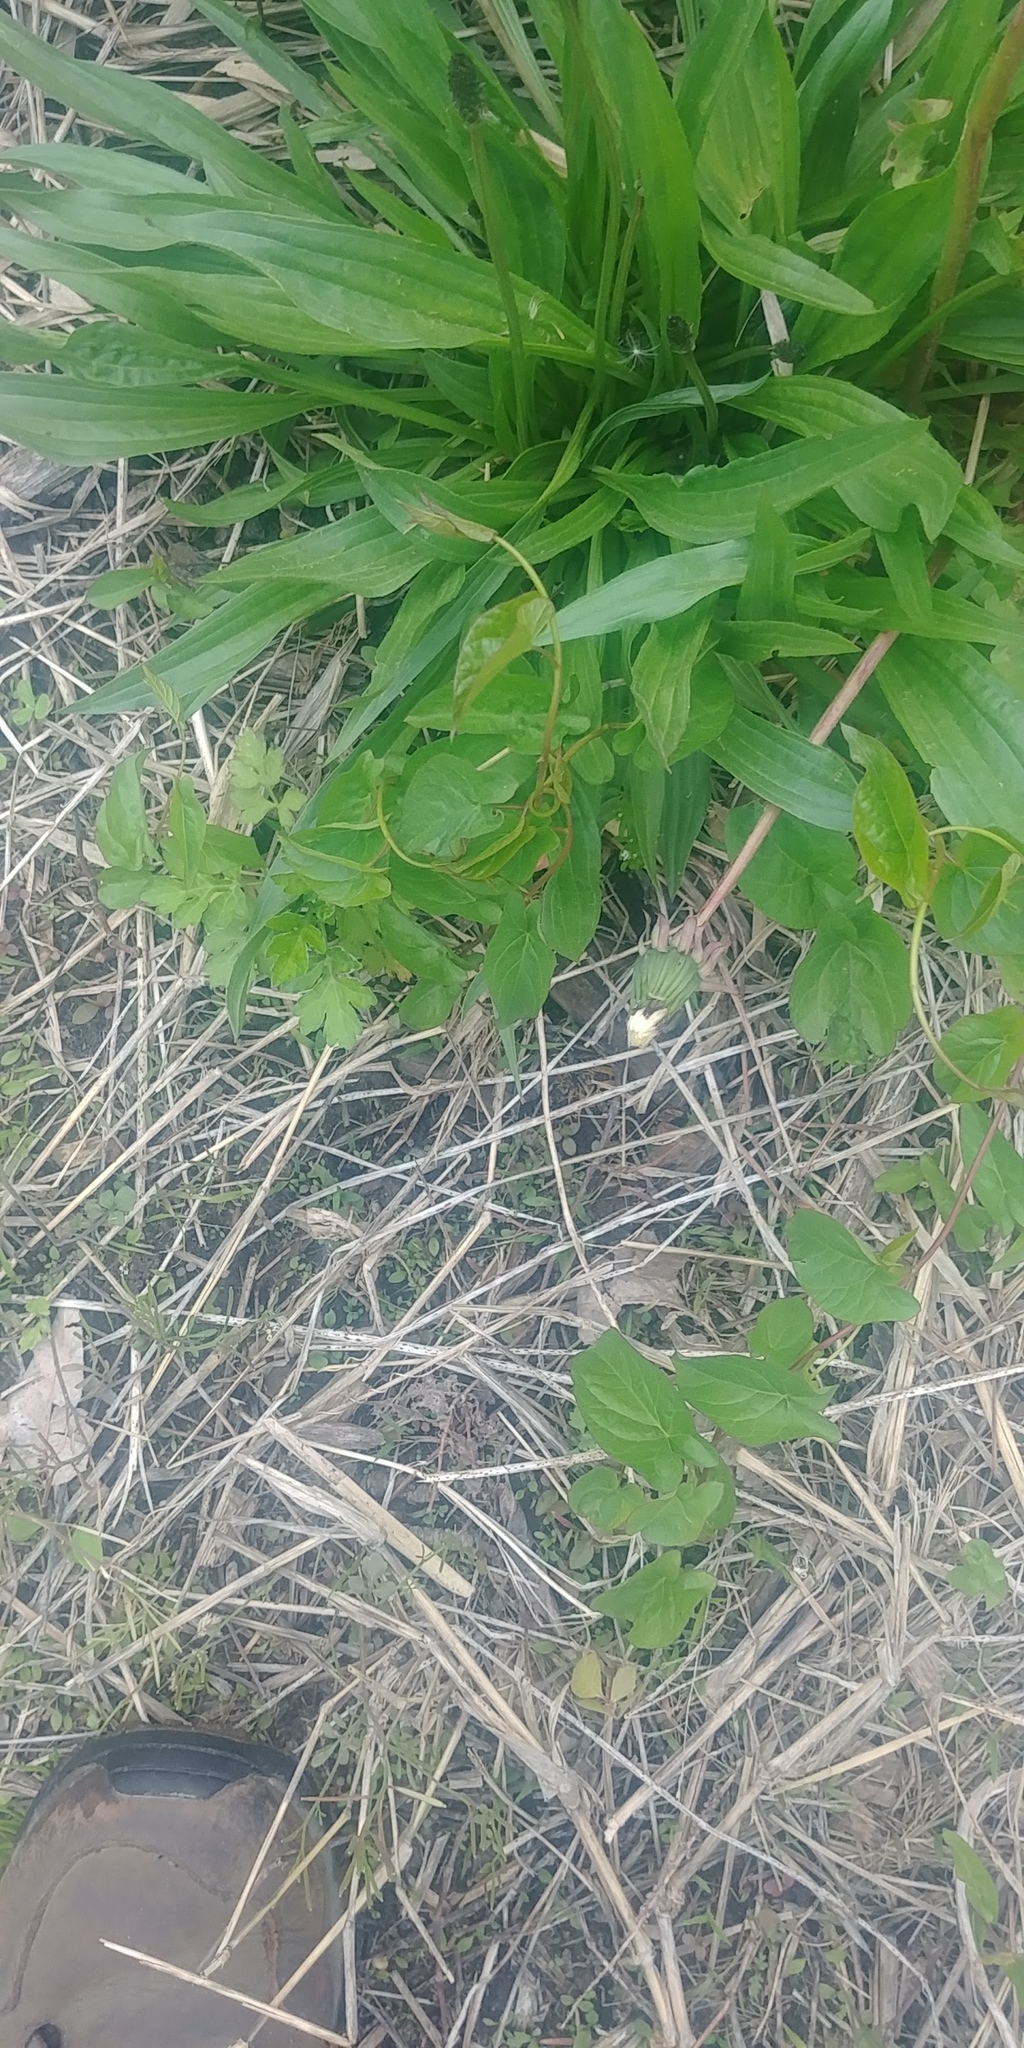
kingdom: Plantae
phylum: Tracheophyta
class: Magnoliopsida
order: Lamiales
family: Plantaginaceae
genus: Plantago
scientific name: Plantago lanceolata
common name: Ribwort plantain
